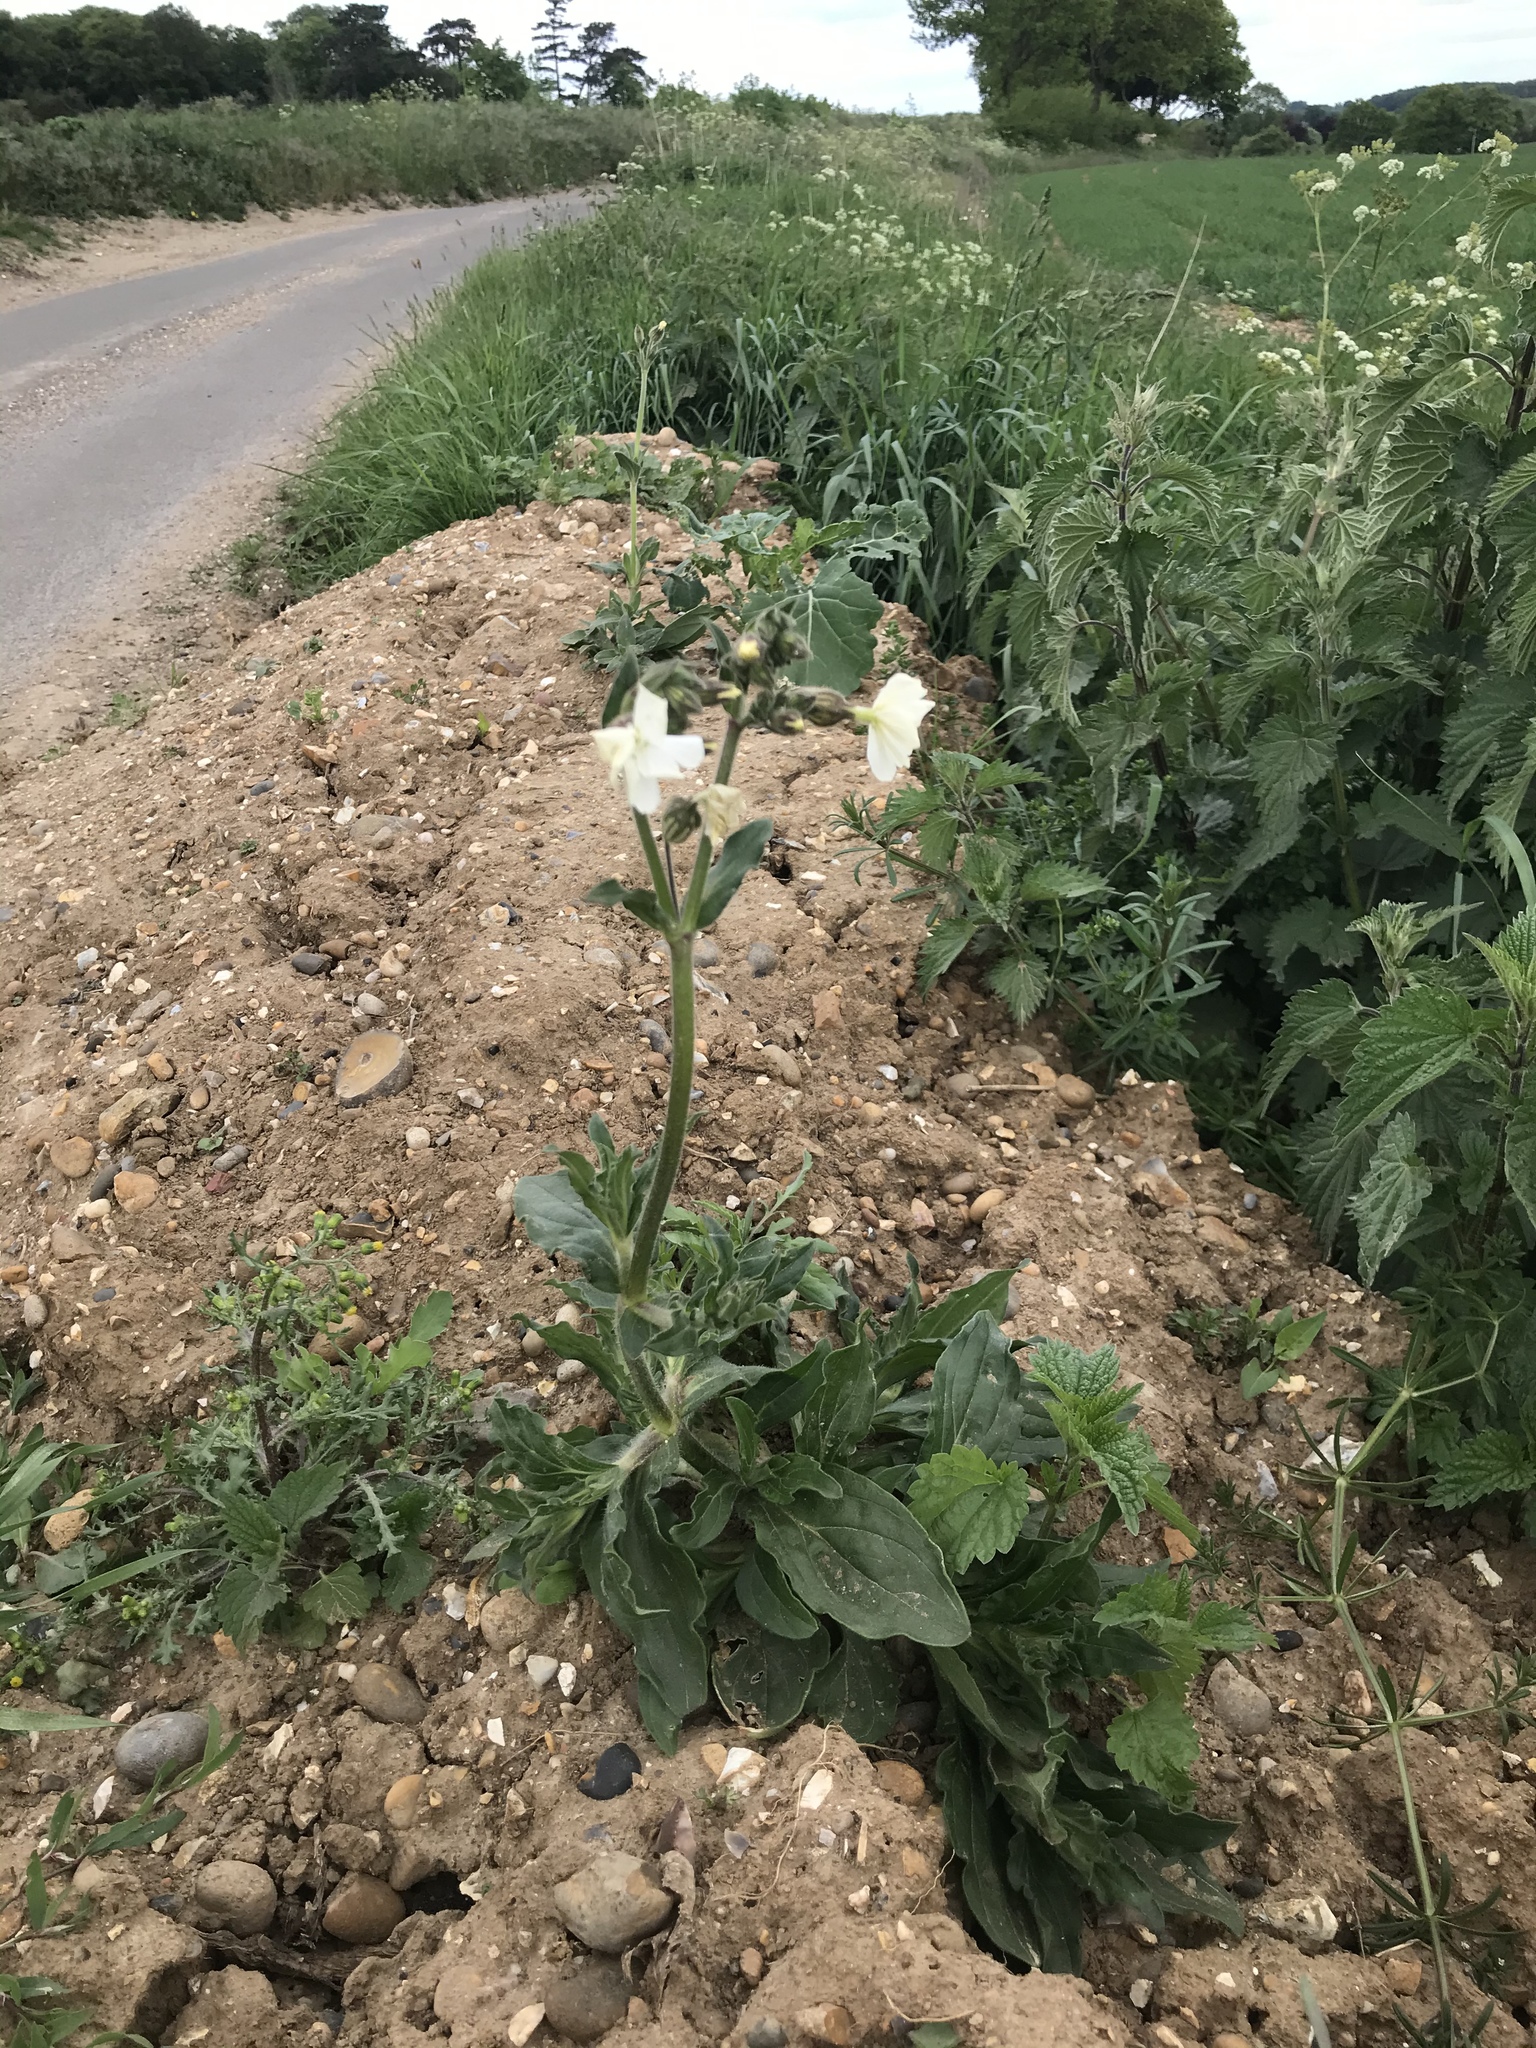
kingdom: Plantae
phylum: Tracheophyta
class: Magnoliopsida
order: Caryophyllales
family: Caryophyllaceae
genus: Silene
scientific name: Silene latifolia
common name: White campion
